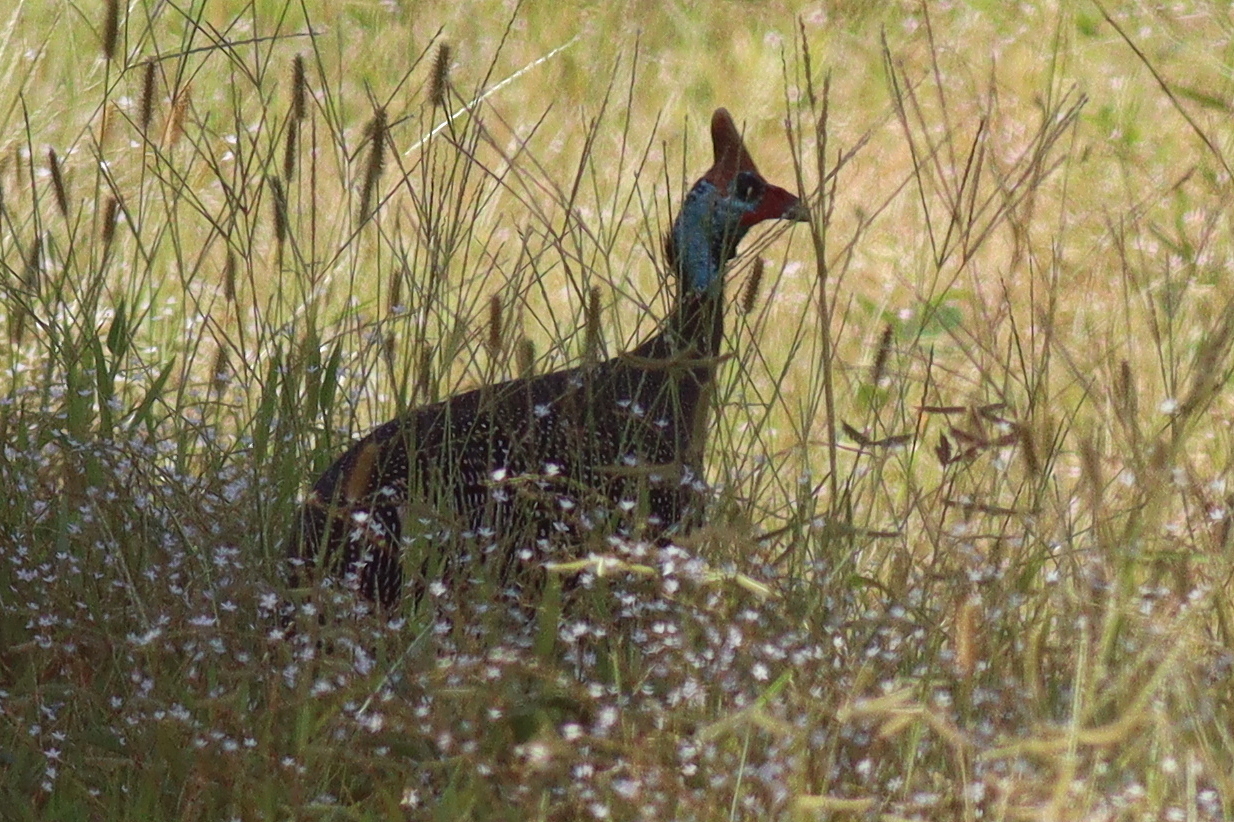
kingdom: Animalia
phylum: Chordata
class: Aves
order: Galliformes
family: Numididae
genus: Numida
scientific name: Numida meleagris
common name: Helmeted guineafowl
